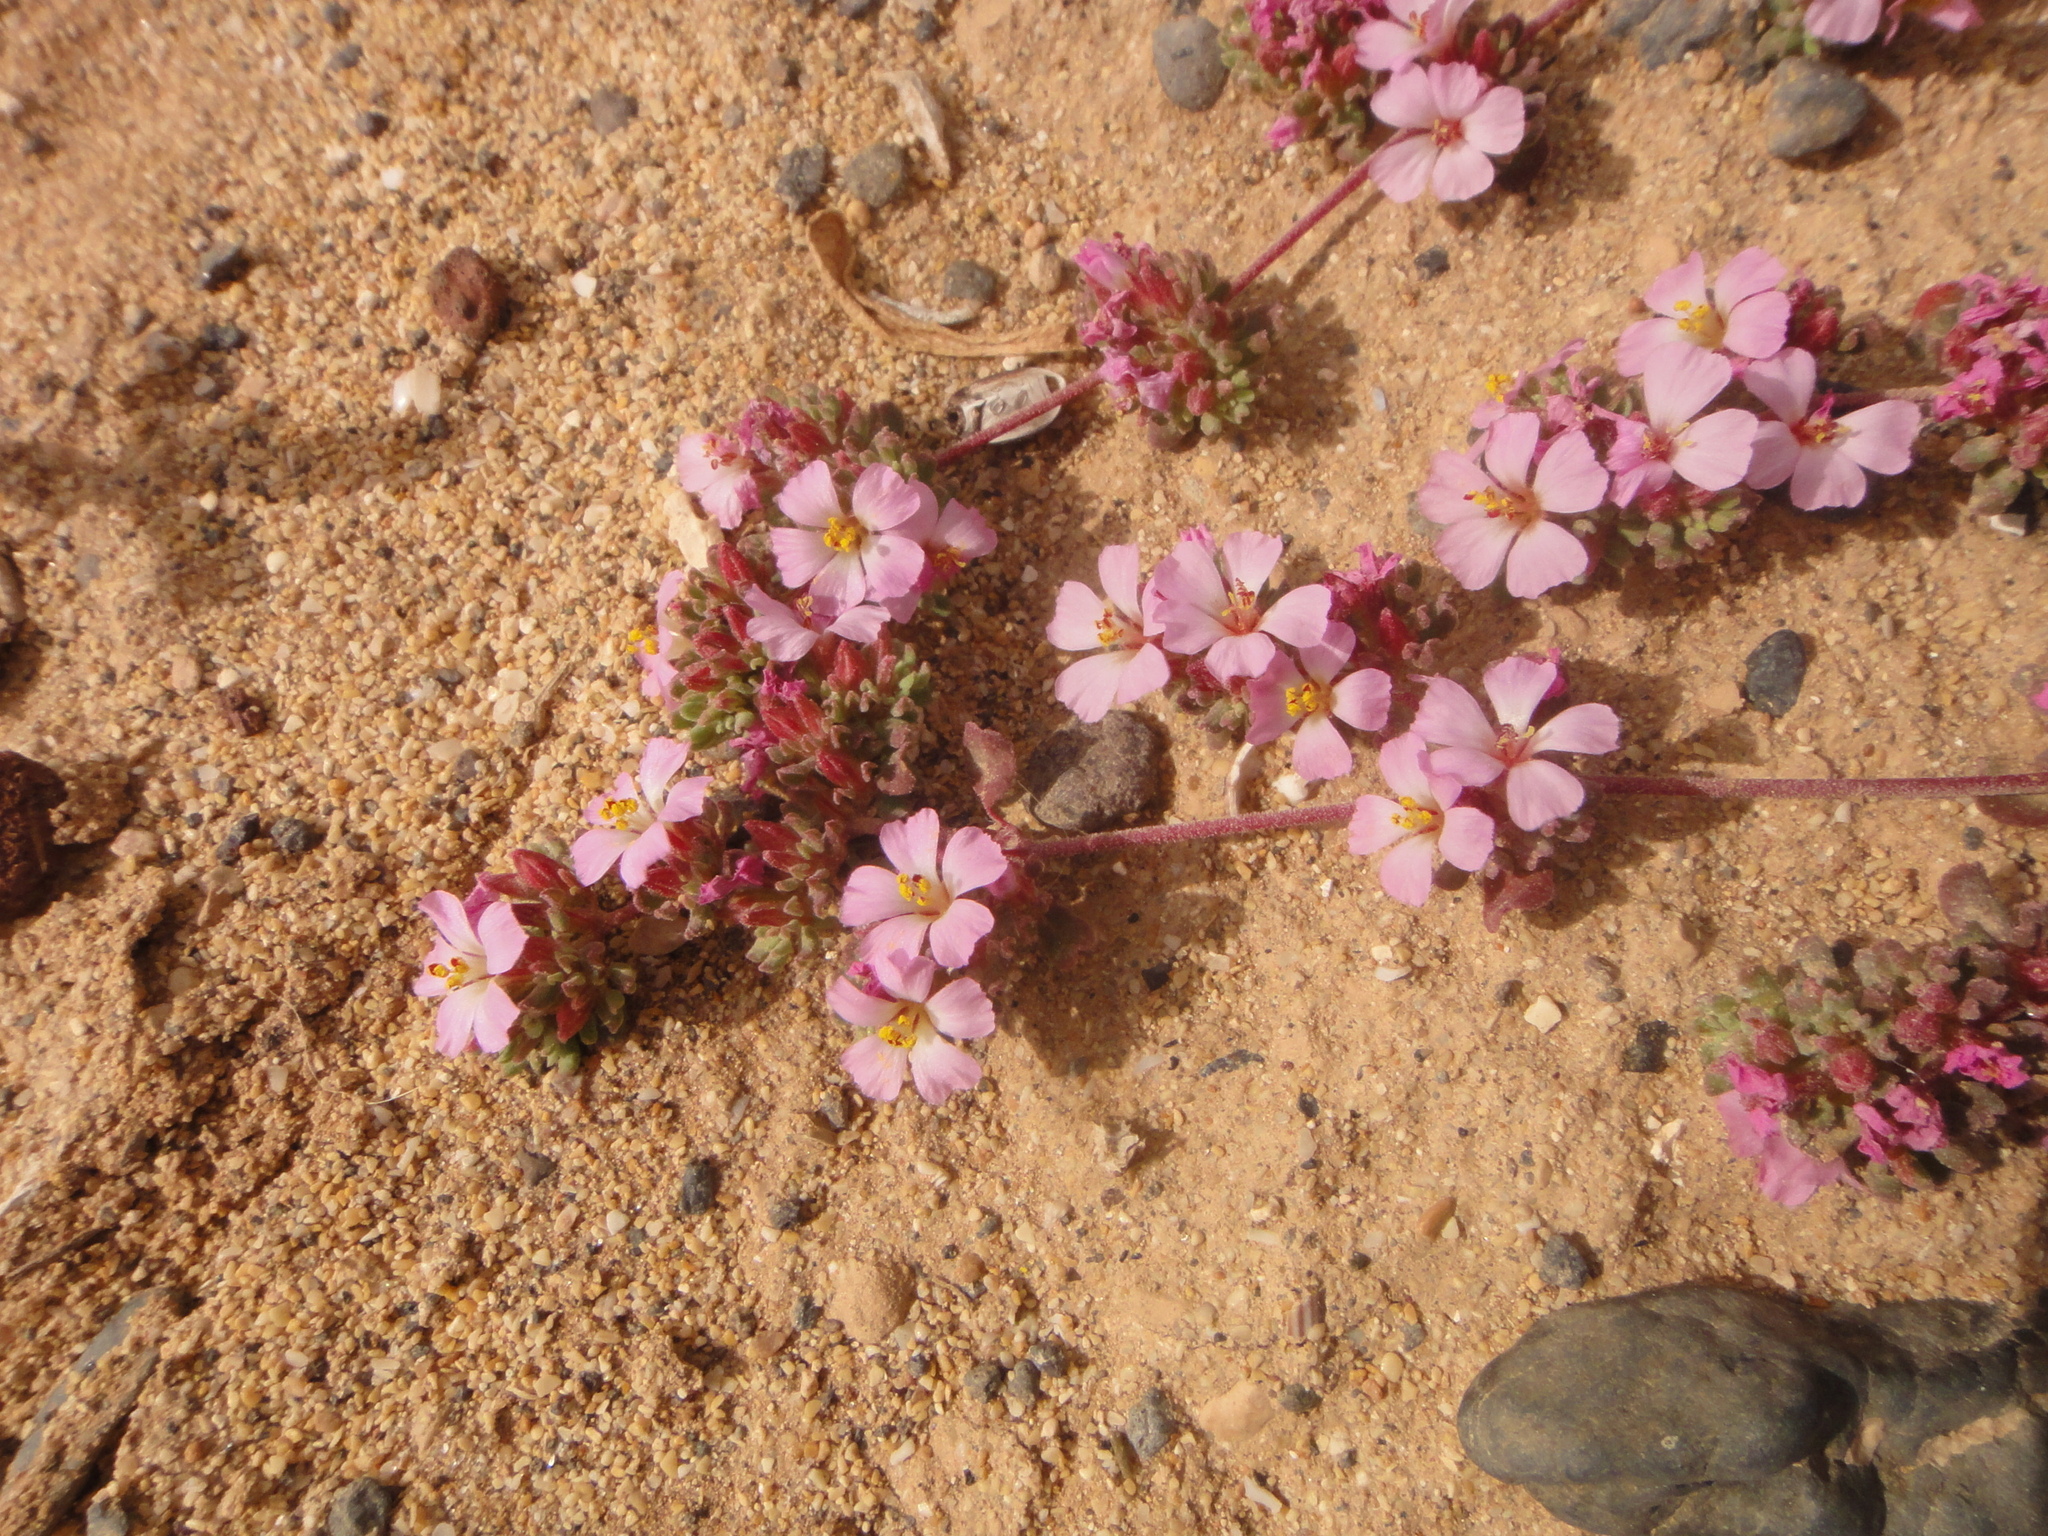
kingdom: Plantae
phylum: Tracheophyta
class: Magnoliopsida
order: Caryophyllales
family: Frankeniaceae
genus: Frankenia
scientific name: Frankenia pulverulenta
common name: European seaheath
